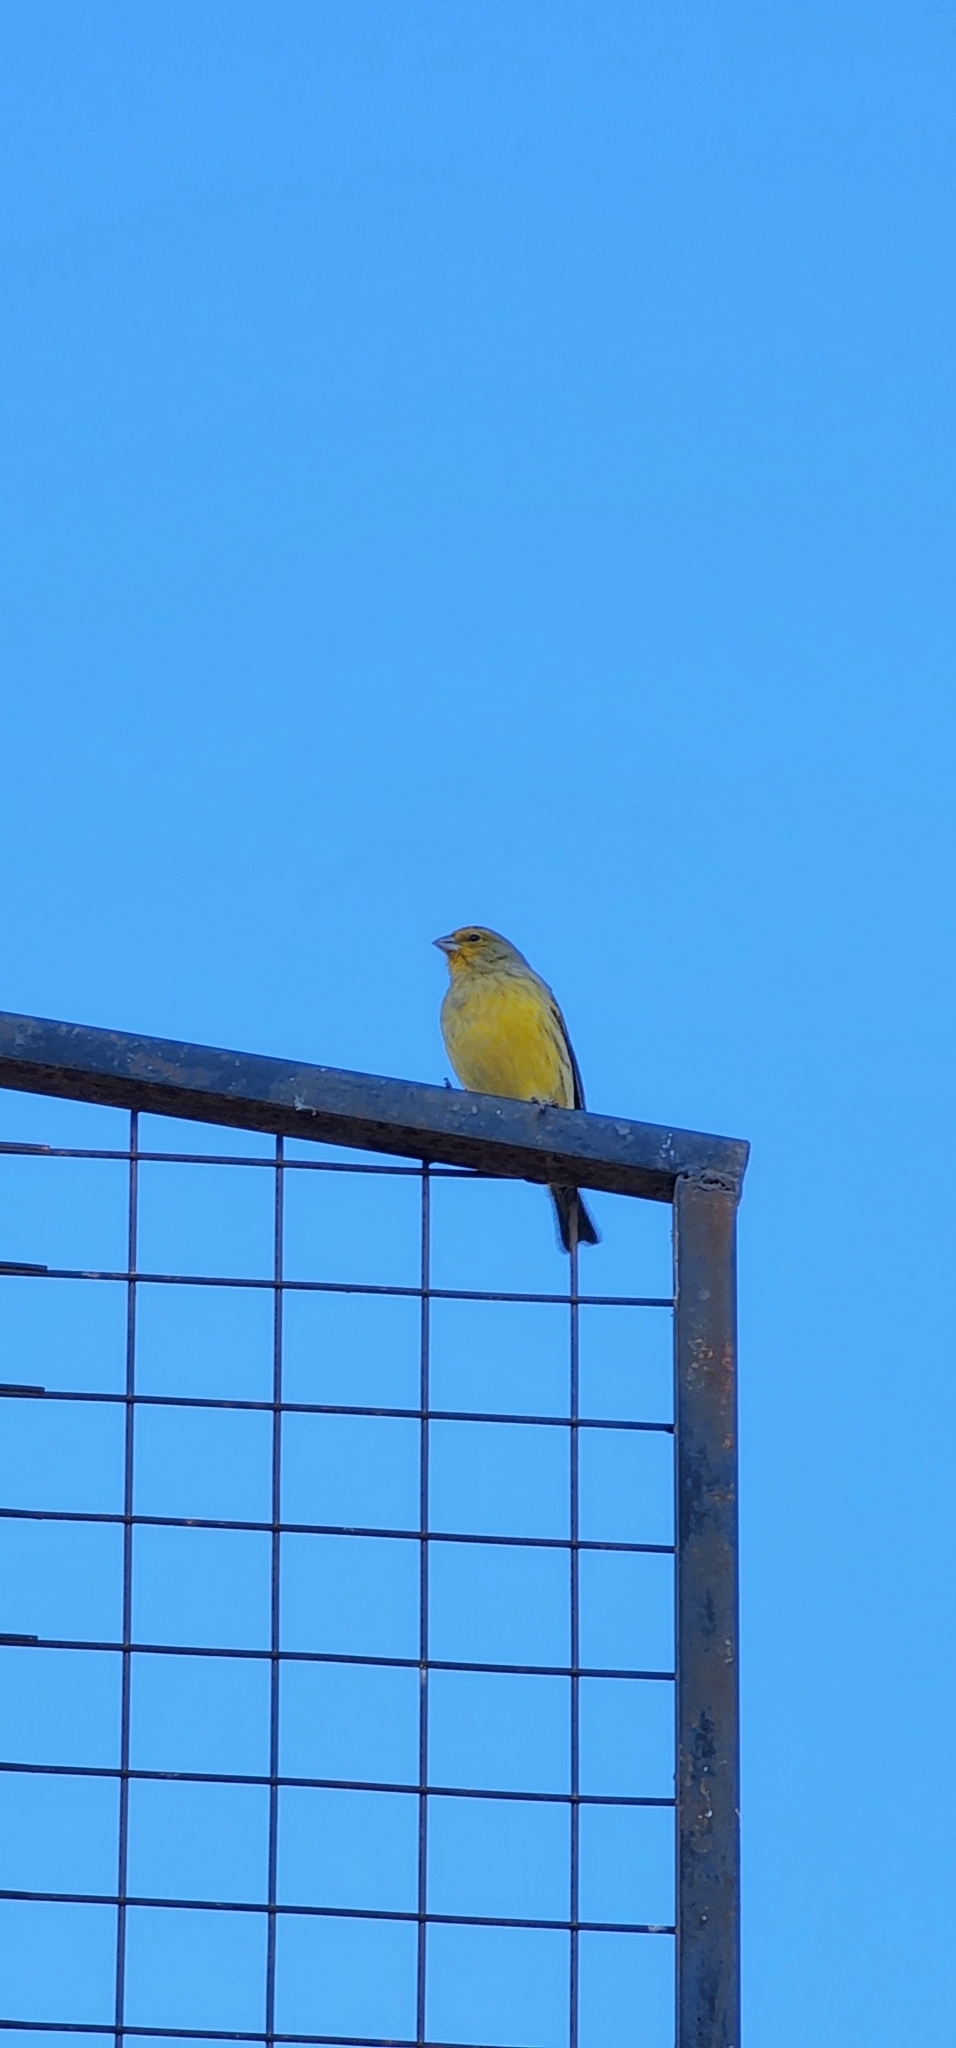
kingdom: Animalia
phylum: Chordata
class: Aves
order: Passeriformes
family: Thraupidae
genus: Sicalis
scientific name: Sicalis flaveola
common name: Saffron finch
